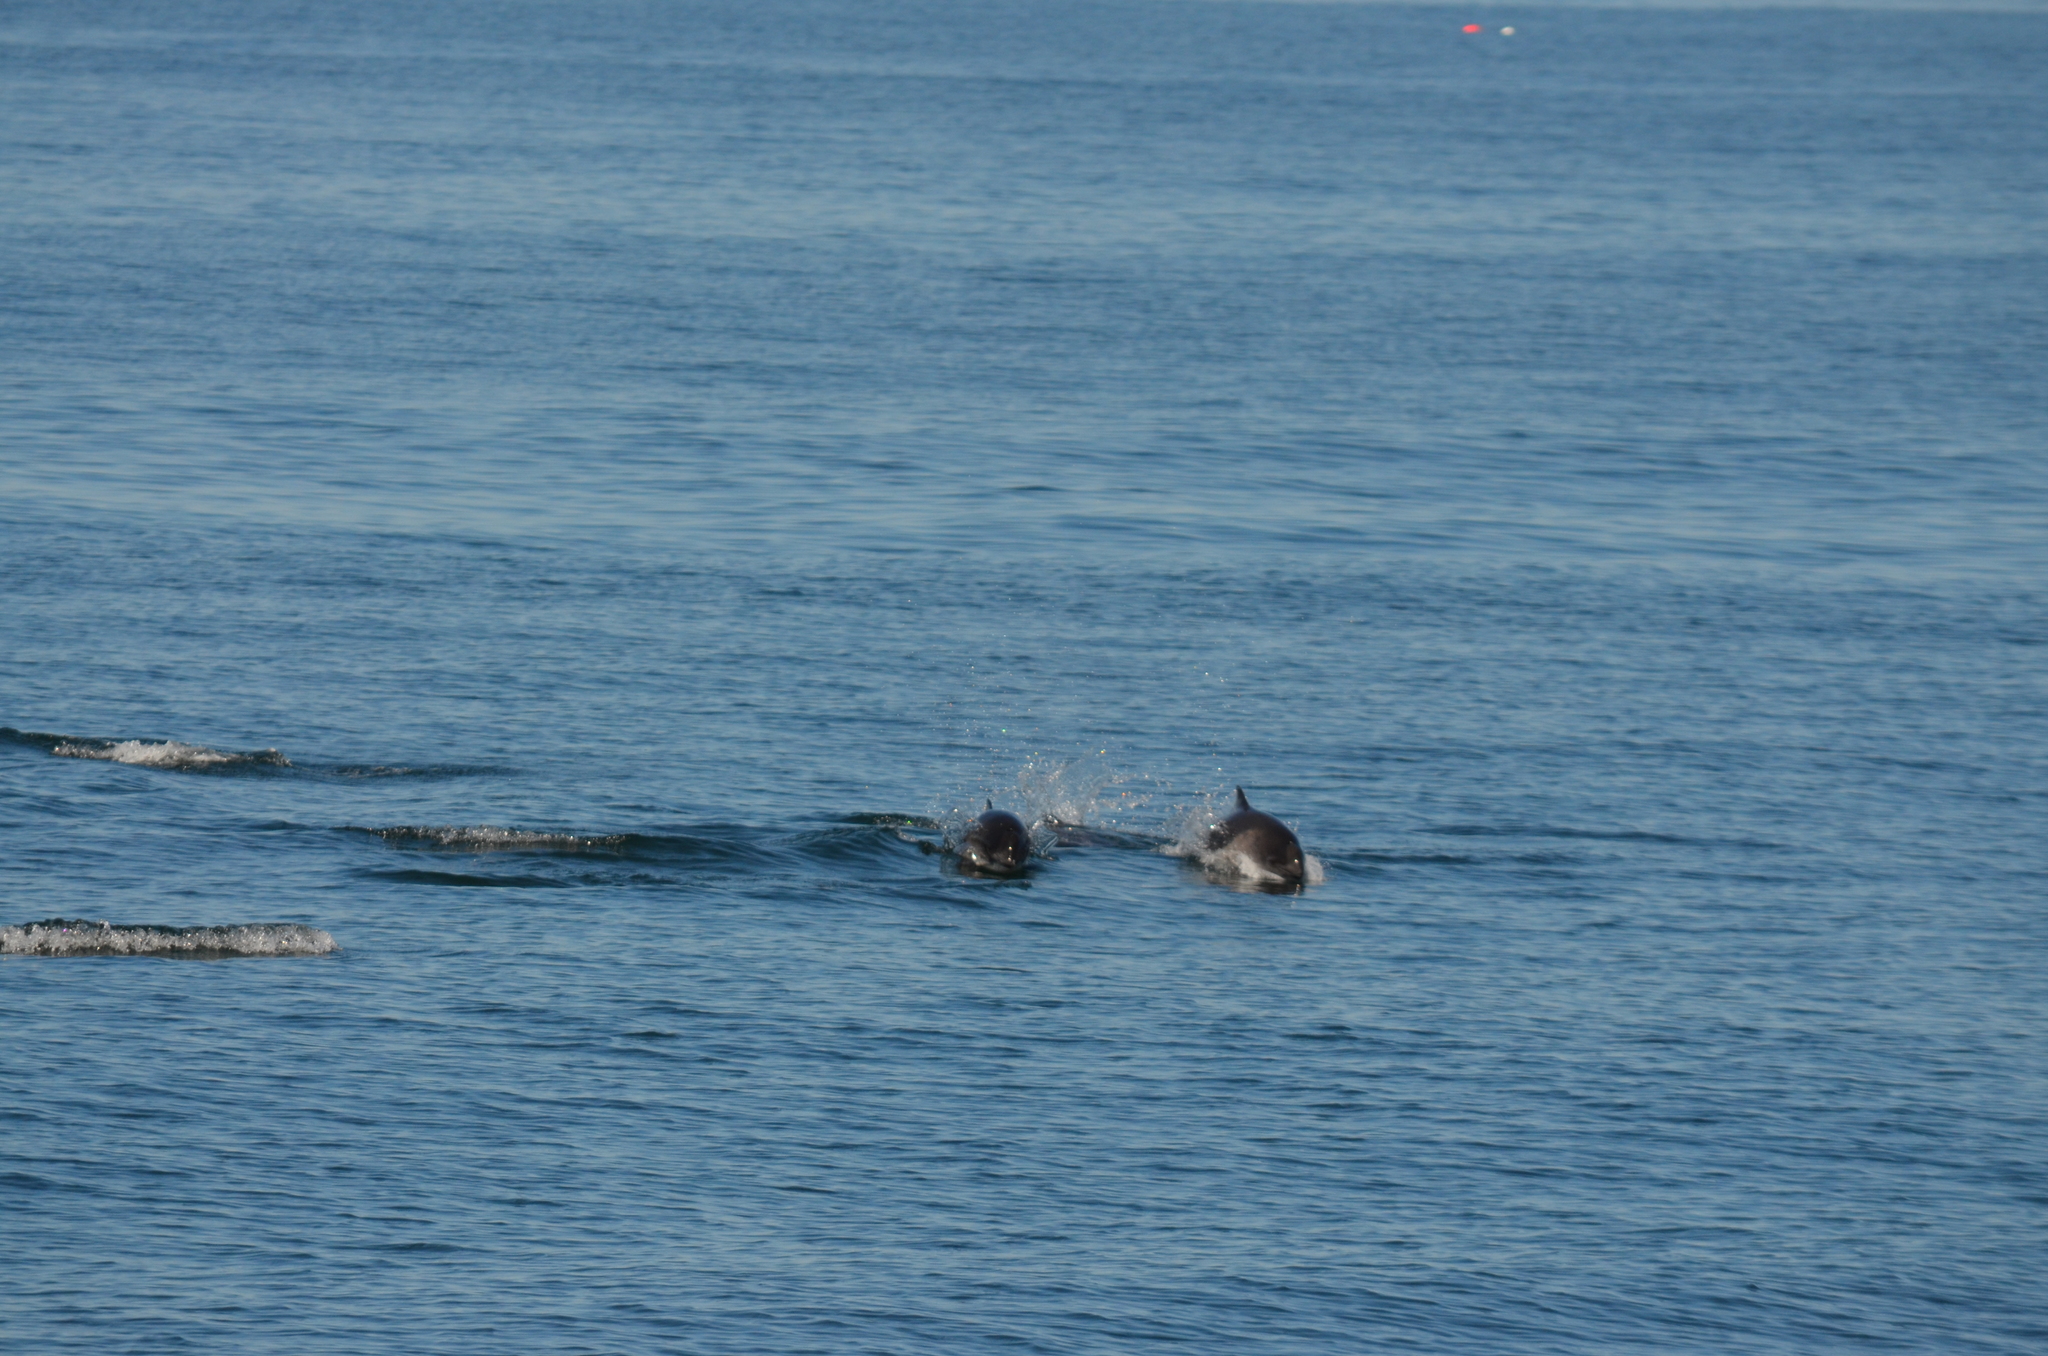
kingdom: Animalia
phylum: Chordata
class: Mammalia
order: Cetacea
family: Phocoenidae
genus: Phocoena
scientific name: Phocoena phocoena
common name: Harbor porpoise
